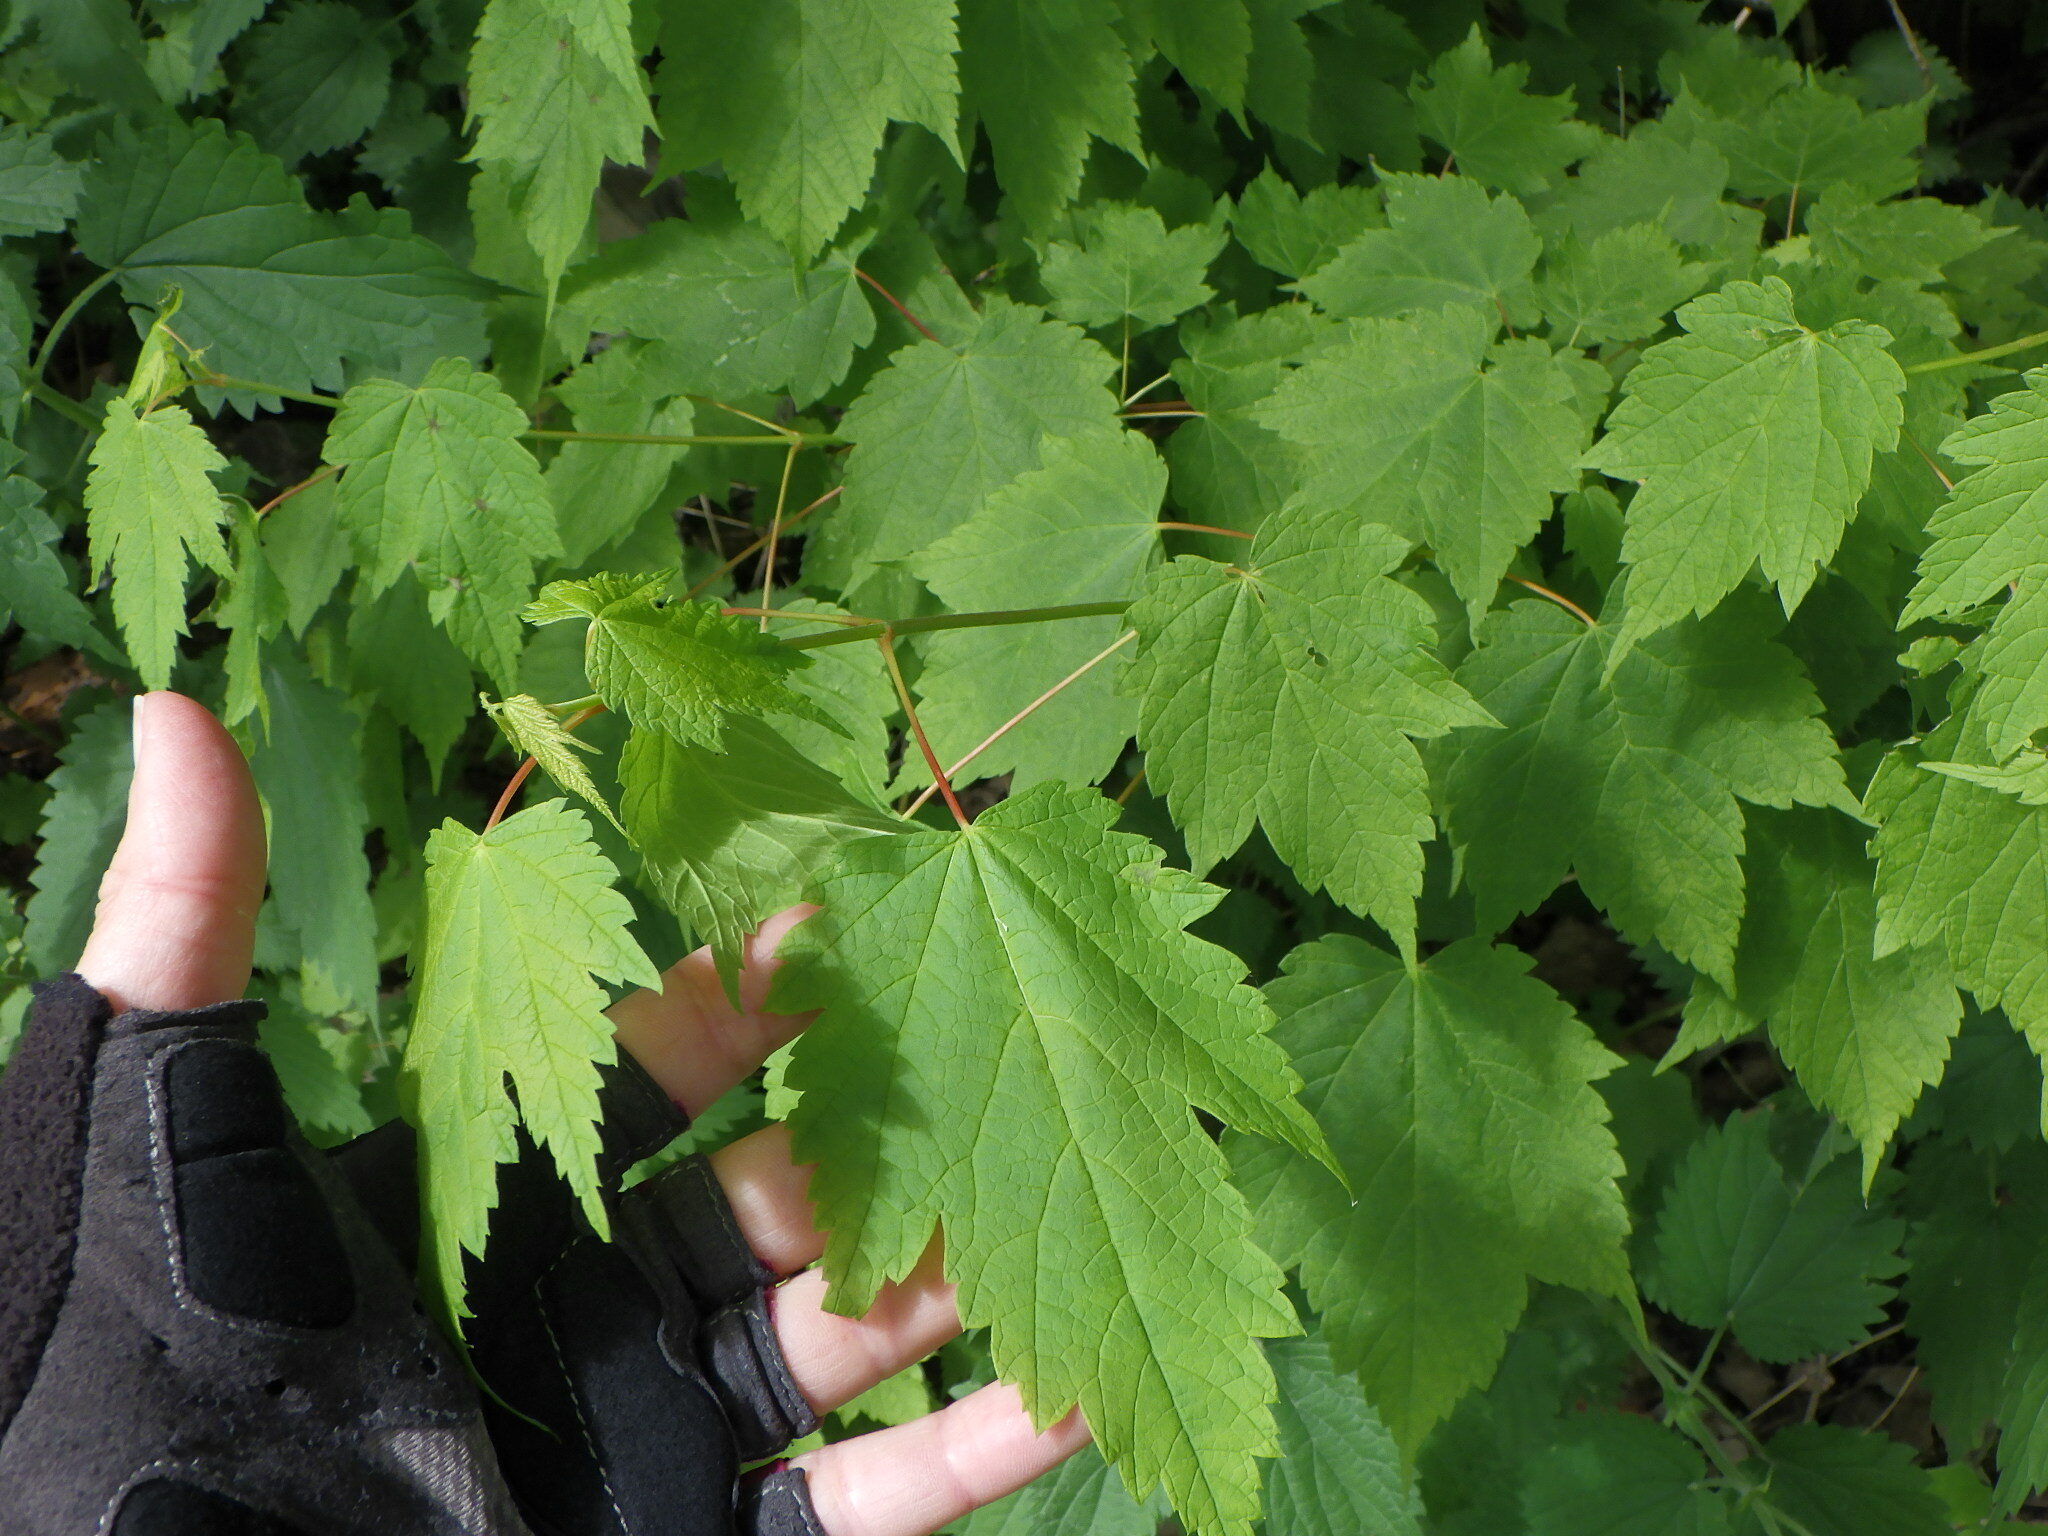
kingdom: Plantae
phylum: Tracheophyta
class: Magnoliopsida
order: Sapindales
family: Sapindaceae
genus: Acer
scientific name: Acer spicatum
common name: Mountain maple
